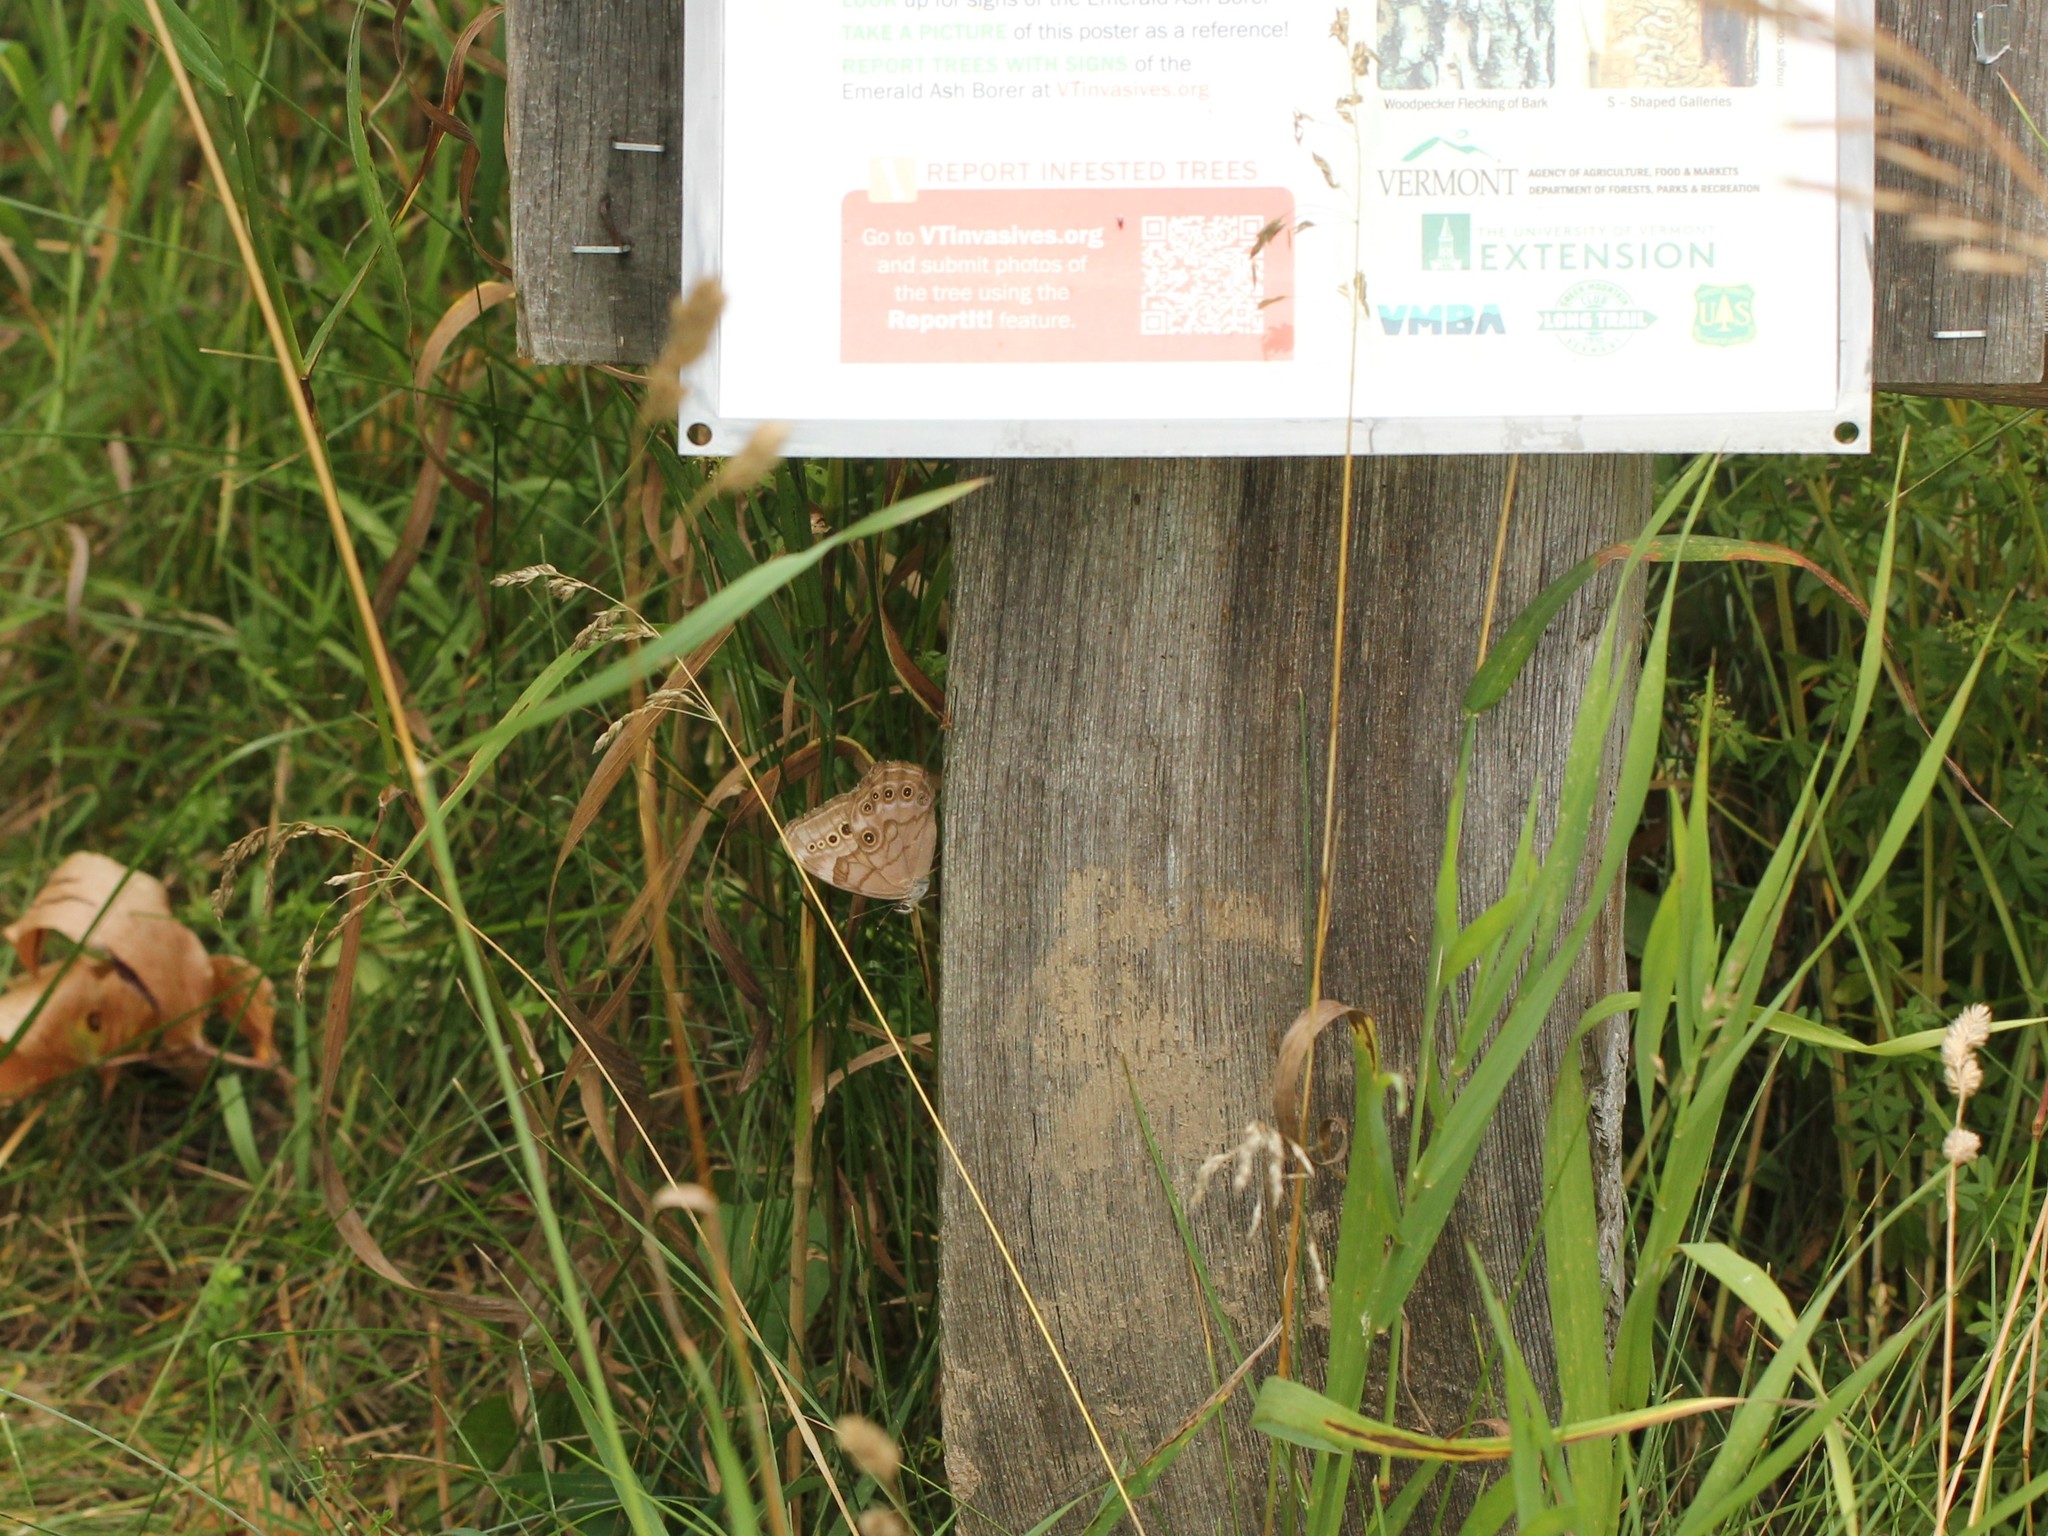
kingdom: Animalia
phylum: Arthropoda
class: Insecta
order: Lepidoptera
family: Nymphalidae
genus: Lethe
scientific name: Lethe anthedon
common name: Northern pearly-eye
